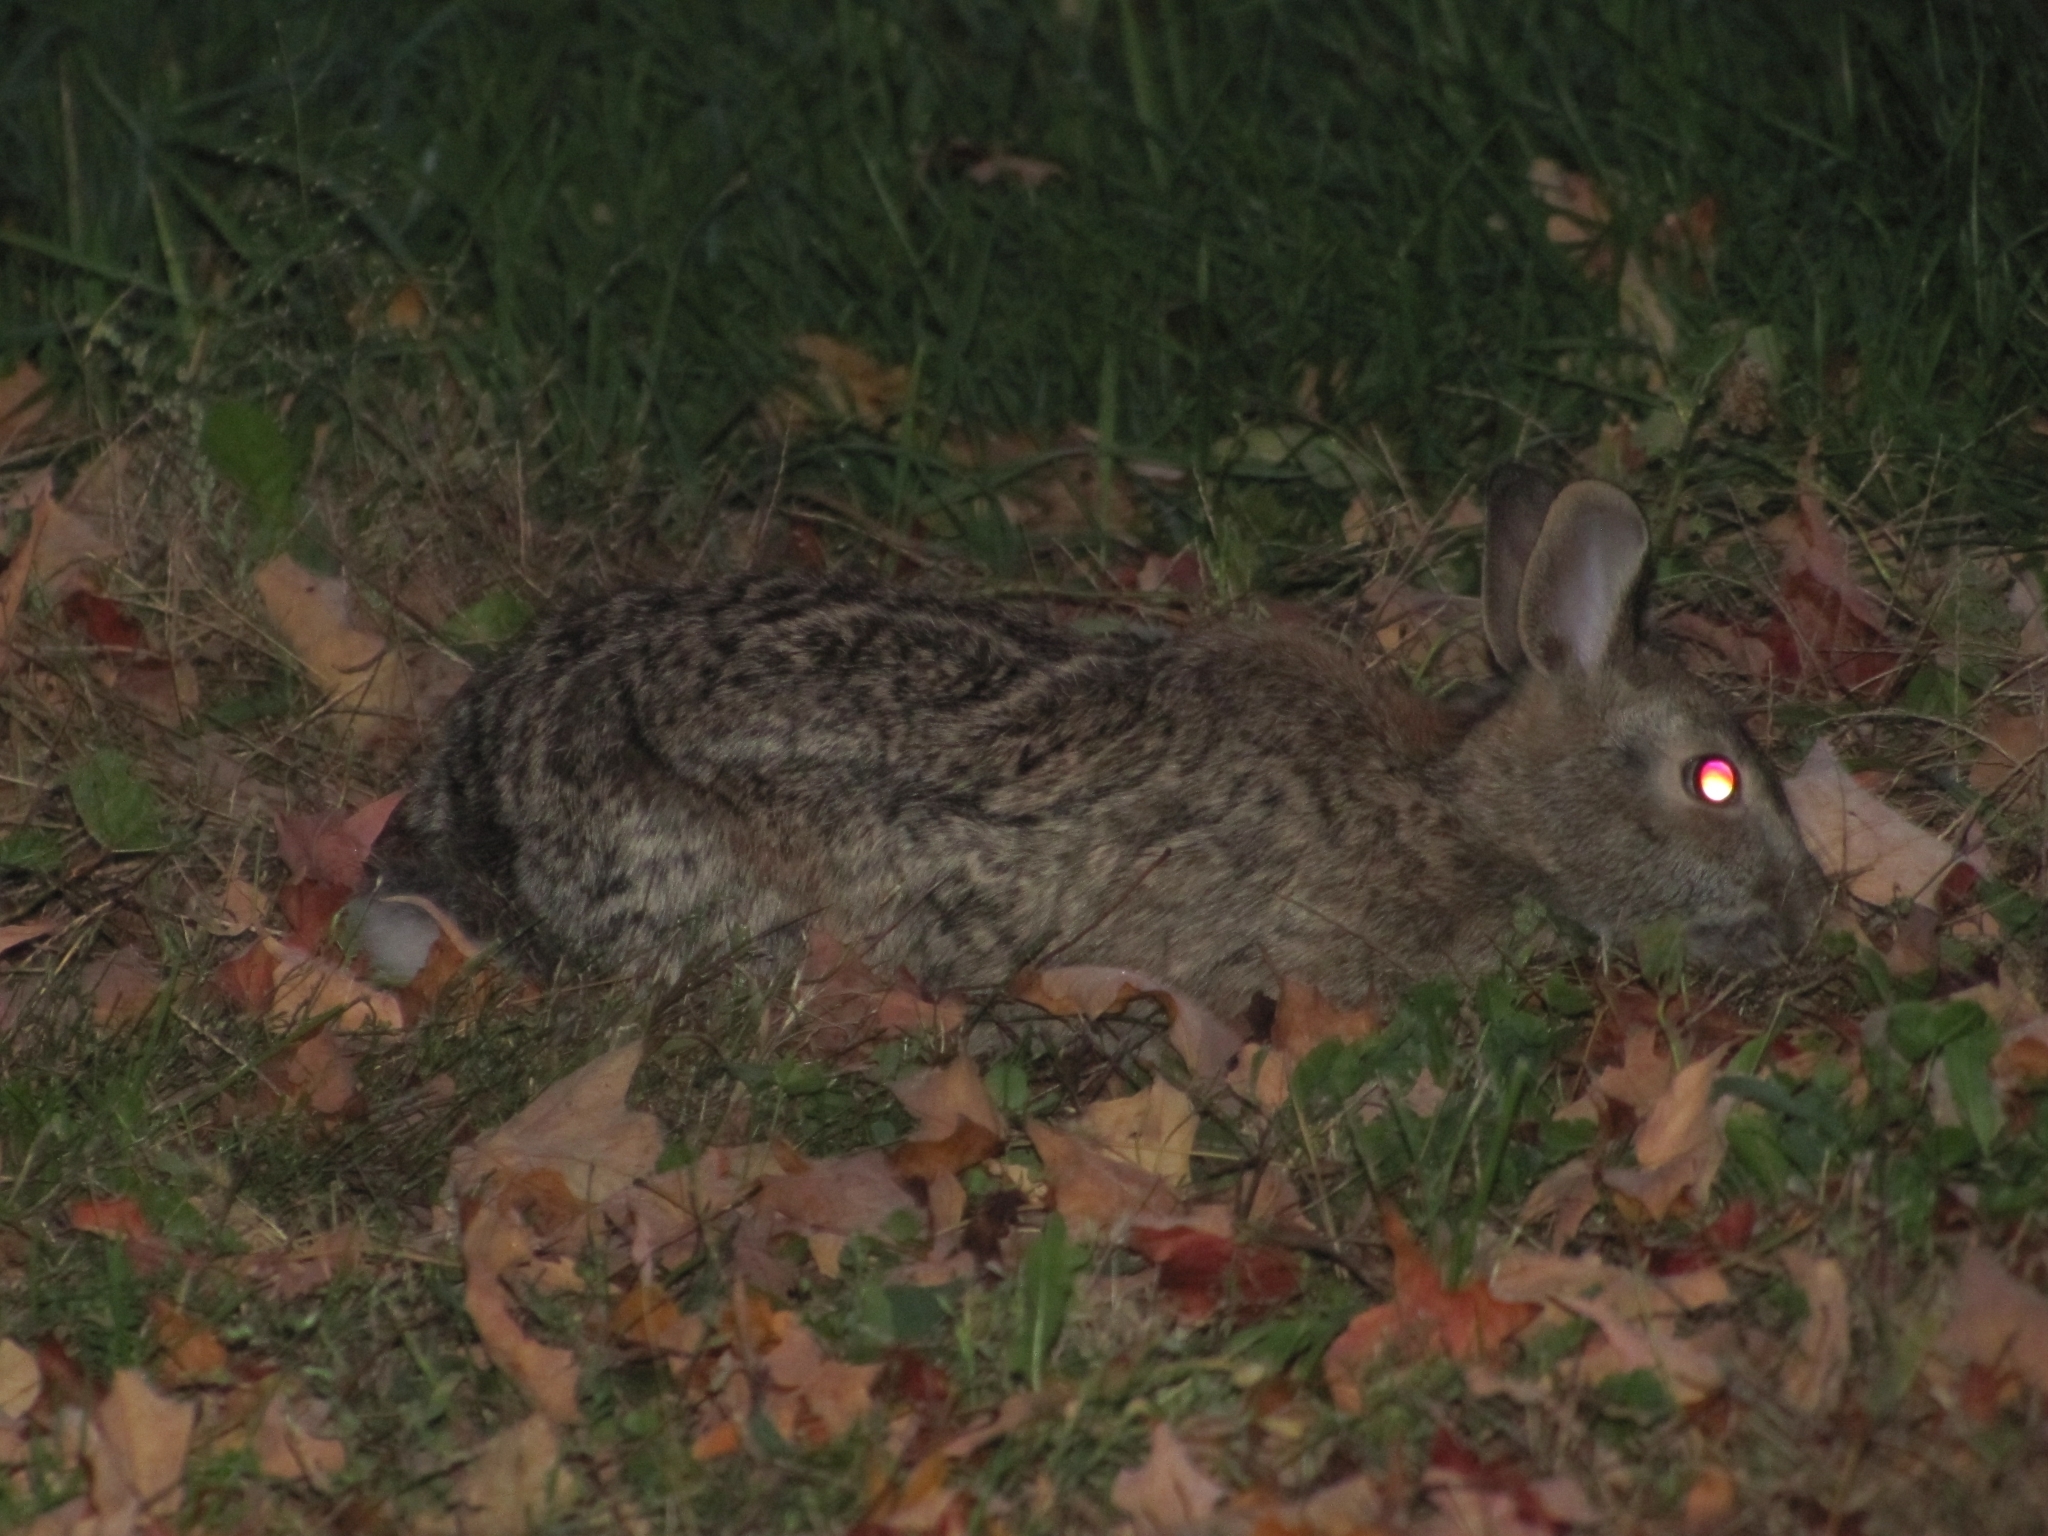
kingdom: Animalia
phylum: Chordata
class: Mammalia
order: Lagomorpha
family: Leporidae
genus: Sylvilagus
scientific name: Sylvilagus floridanus
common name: Eastern cottontail
